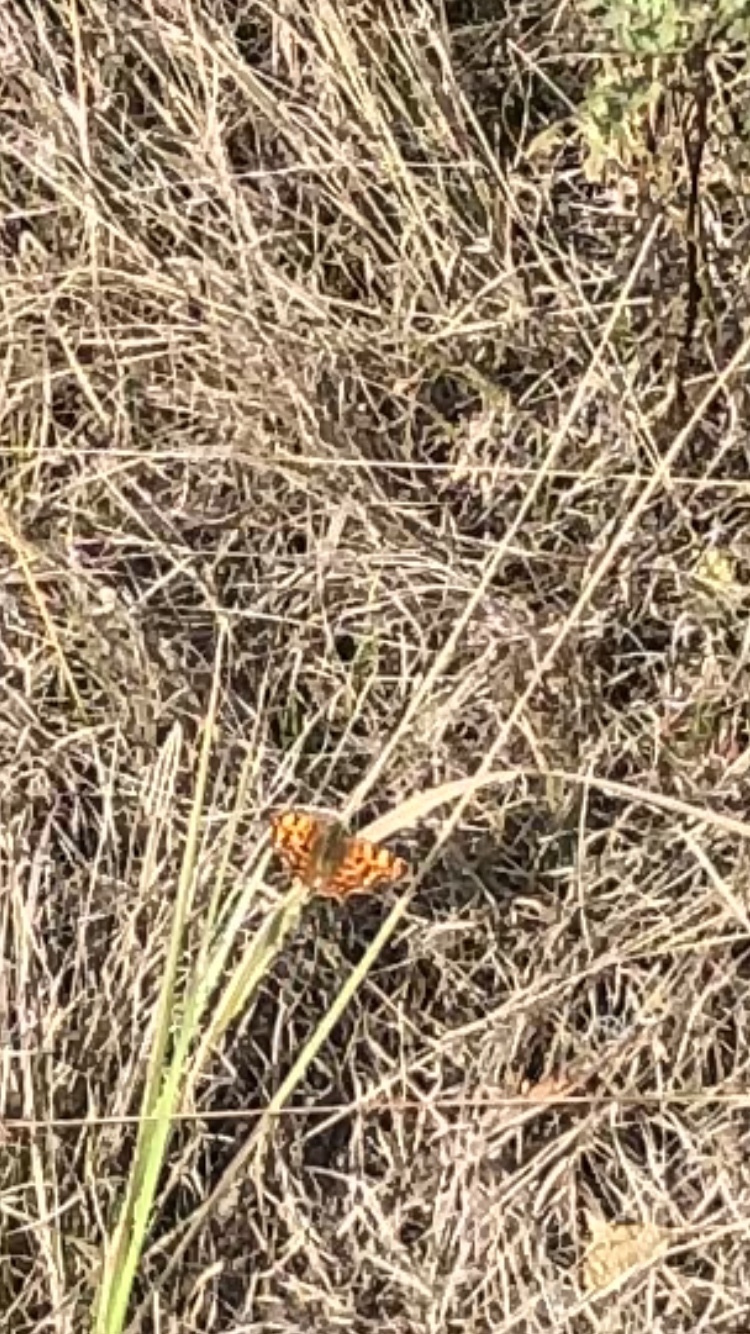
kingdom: Animalia
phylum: Arthropoda
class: Insecta
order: Lepidoptera
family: Nymphalidae
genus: Polygonia
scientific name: Polygonia c-album
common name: Comma
